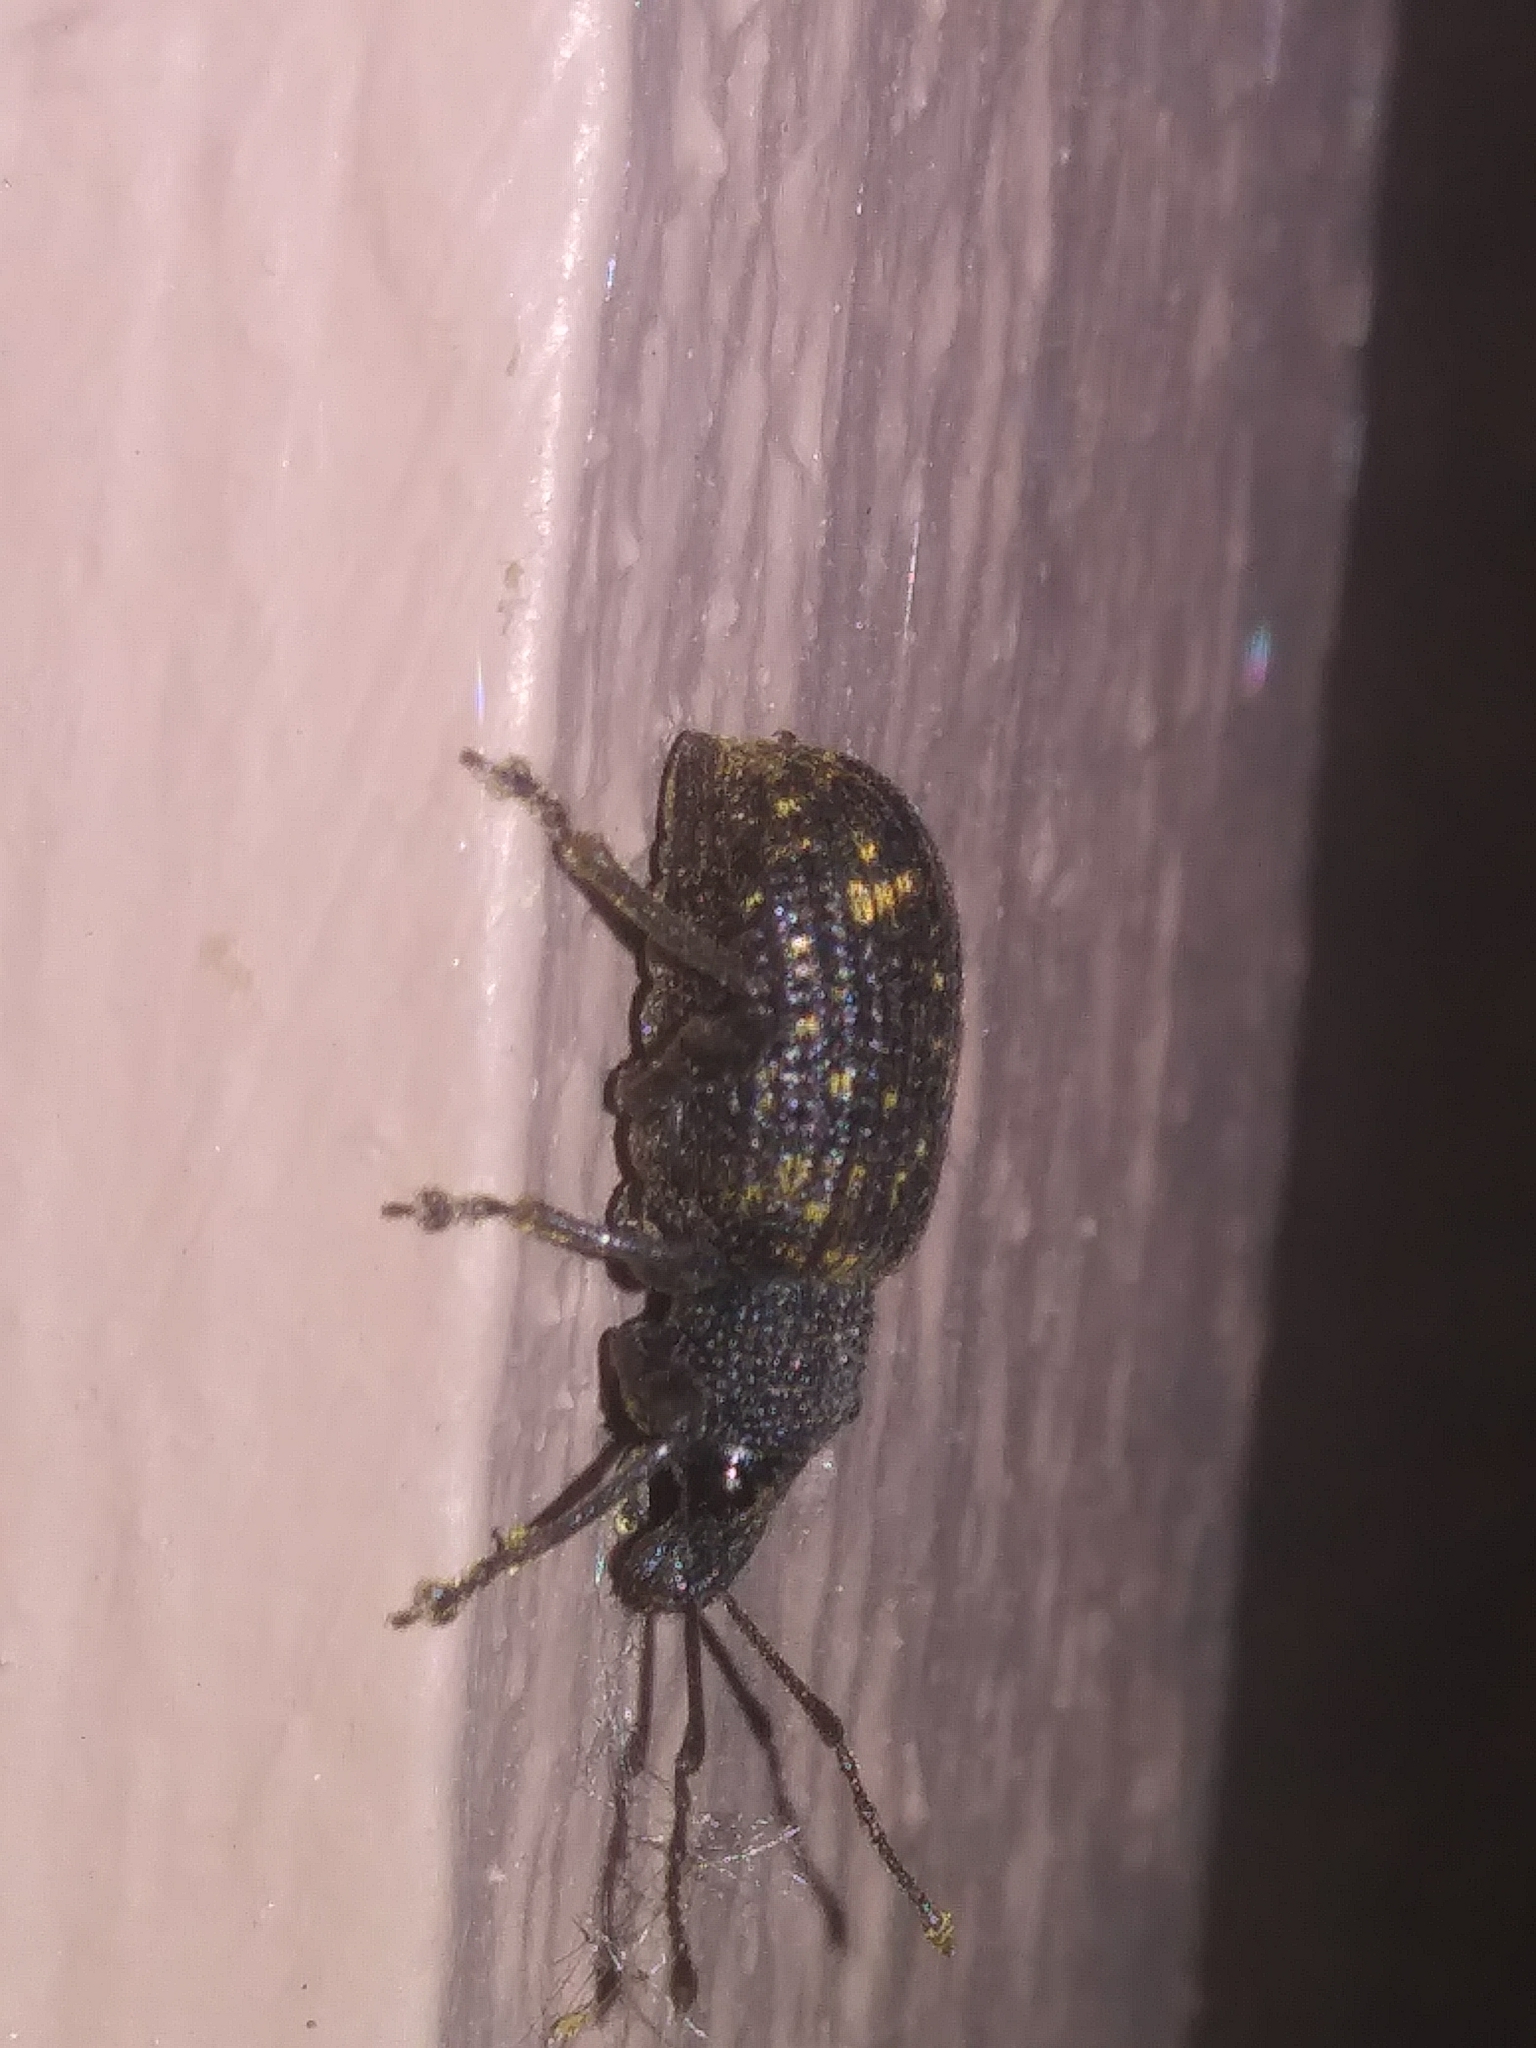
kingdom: Animalia
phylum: Arthropoda
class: Insecta
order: Coleoptera
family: Curculionidae
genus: Otiorhynchus
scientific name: Otiorhynchus sulcatus
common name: Black vine weevil
